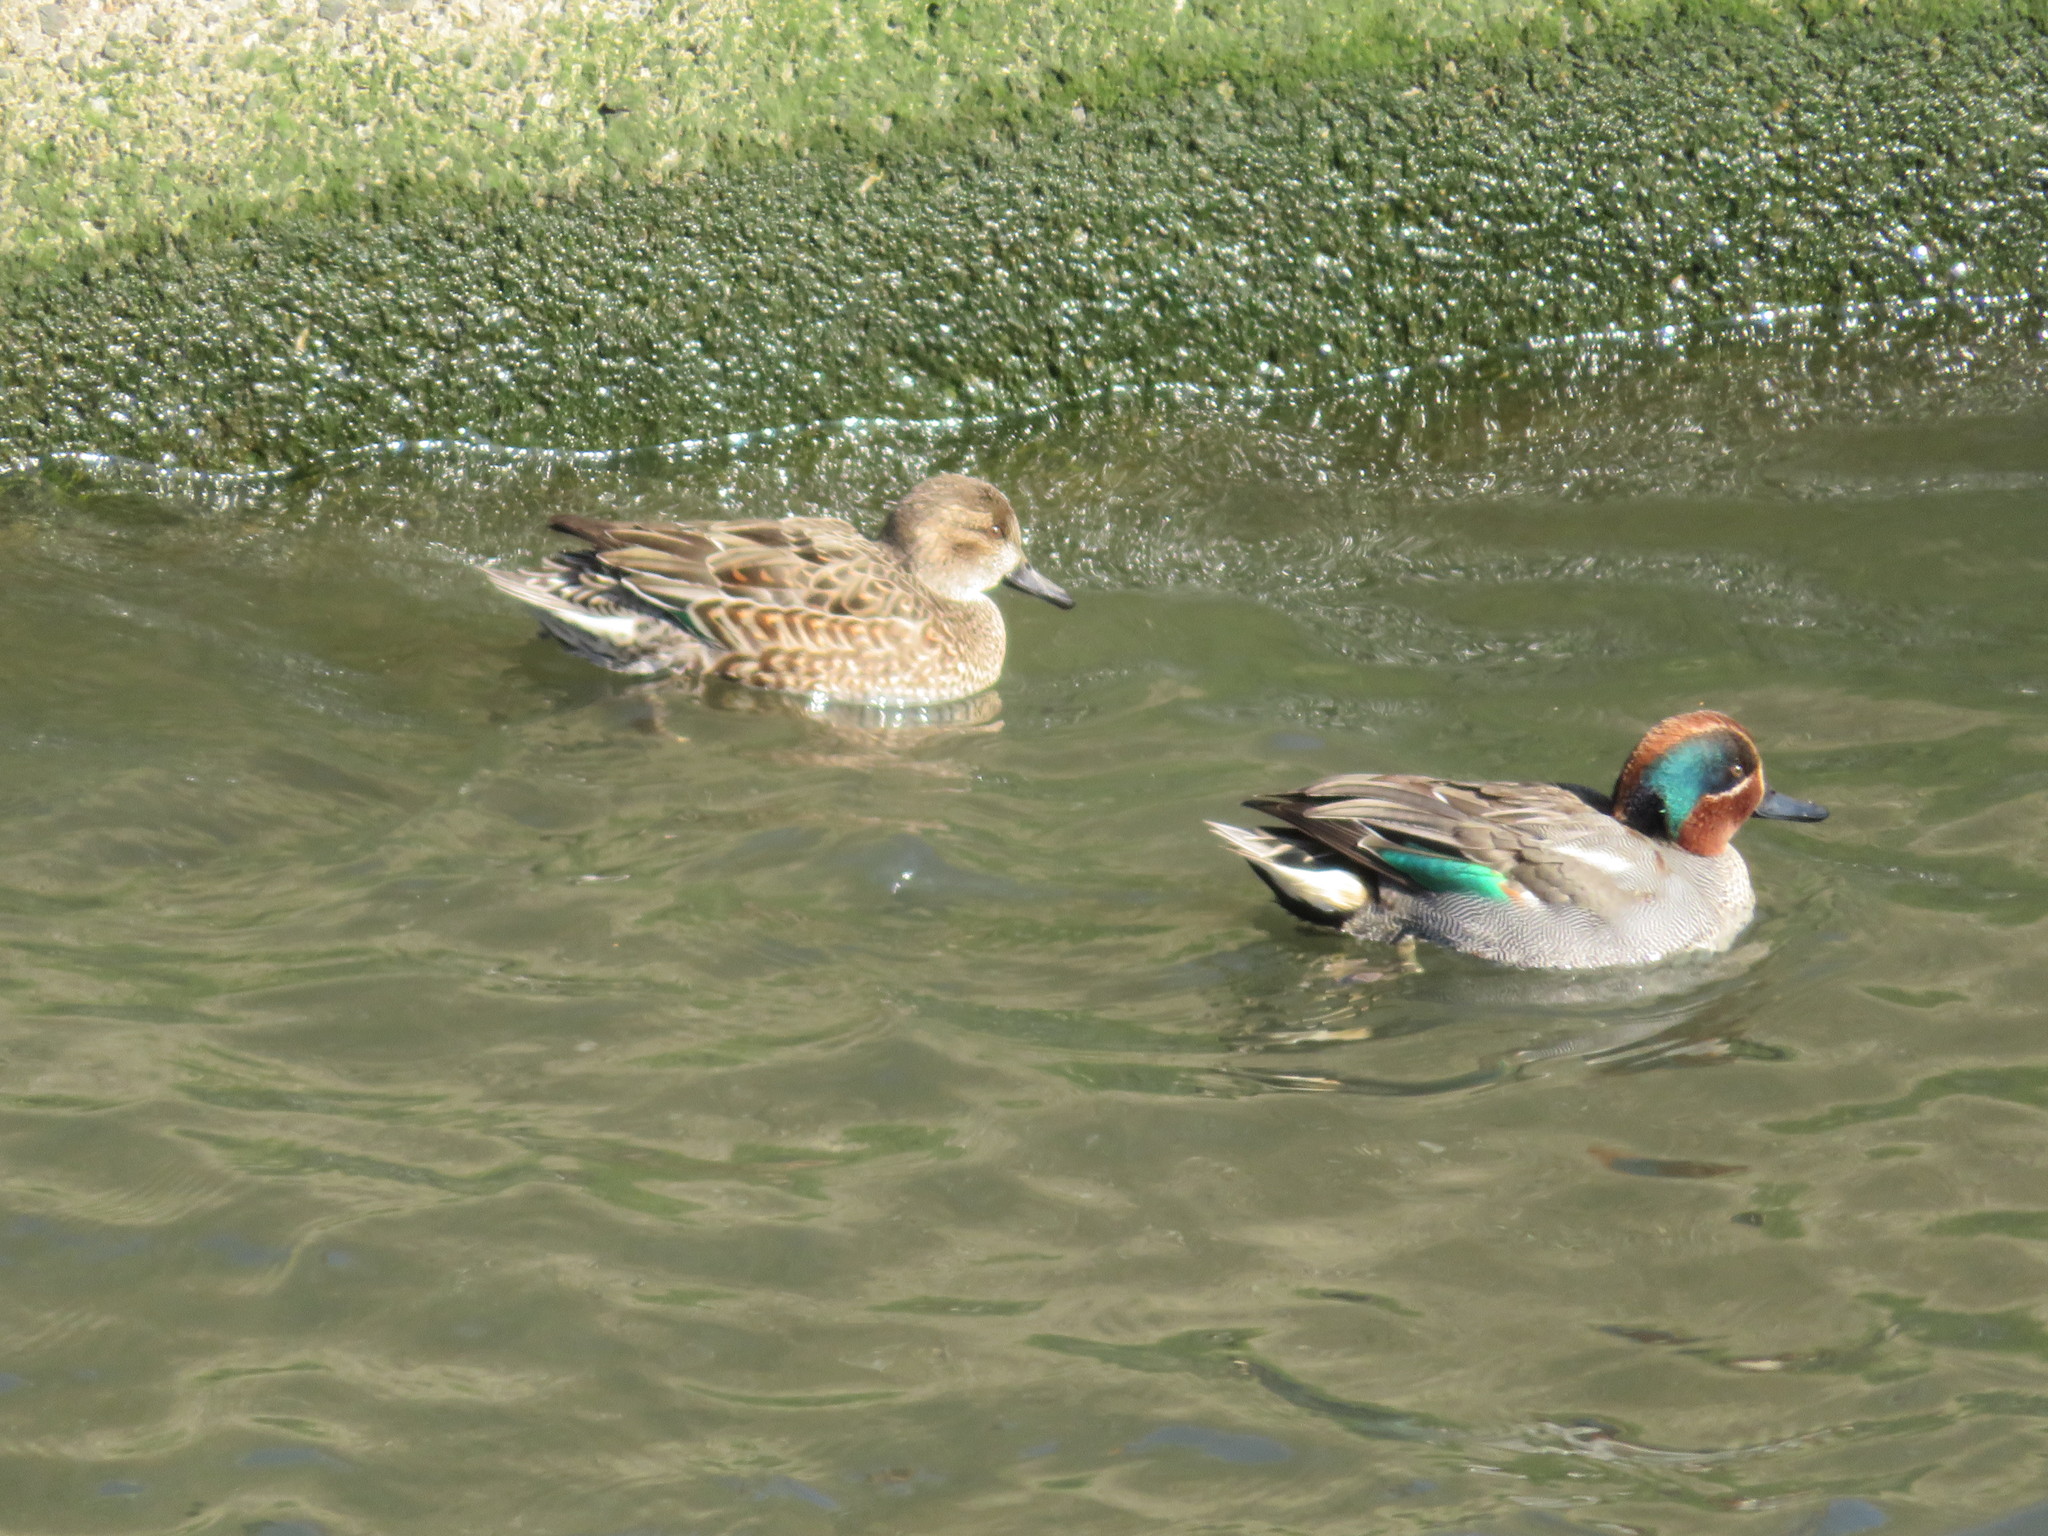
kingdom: Animalia
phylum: Chordata
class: Aves
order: Anseriformes
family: Anatidae
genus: Anas
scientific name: Anas crecca
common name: Eurasian teal
